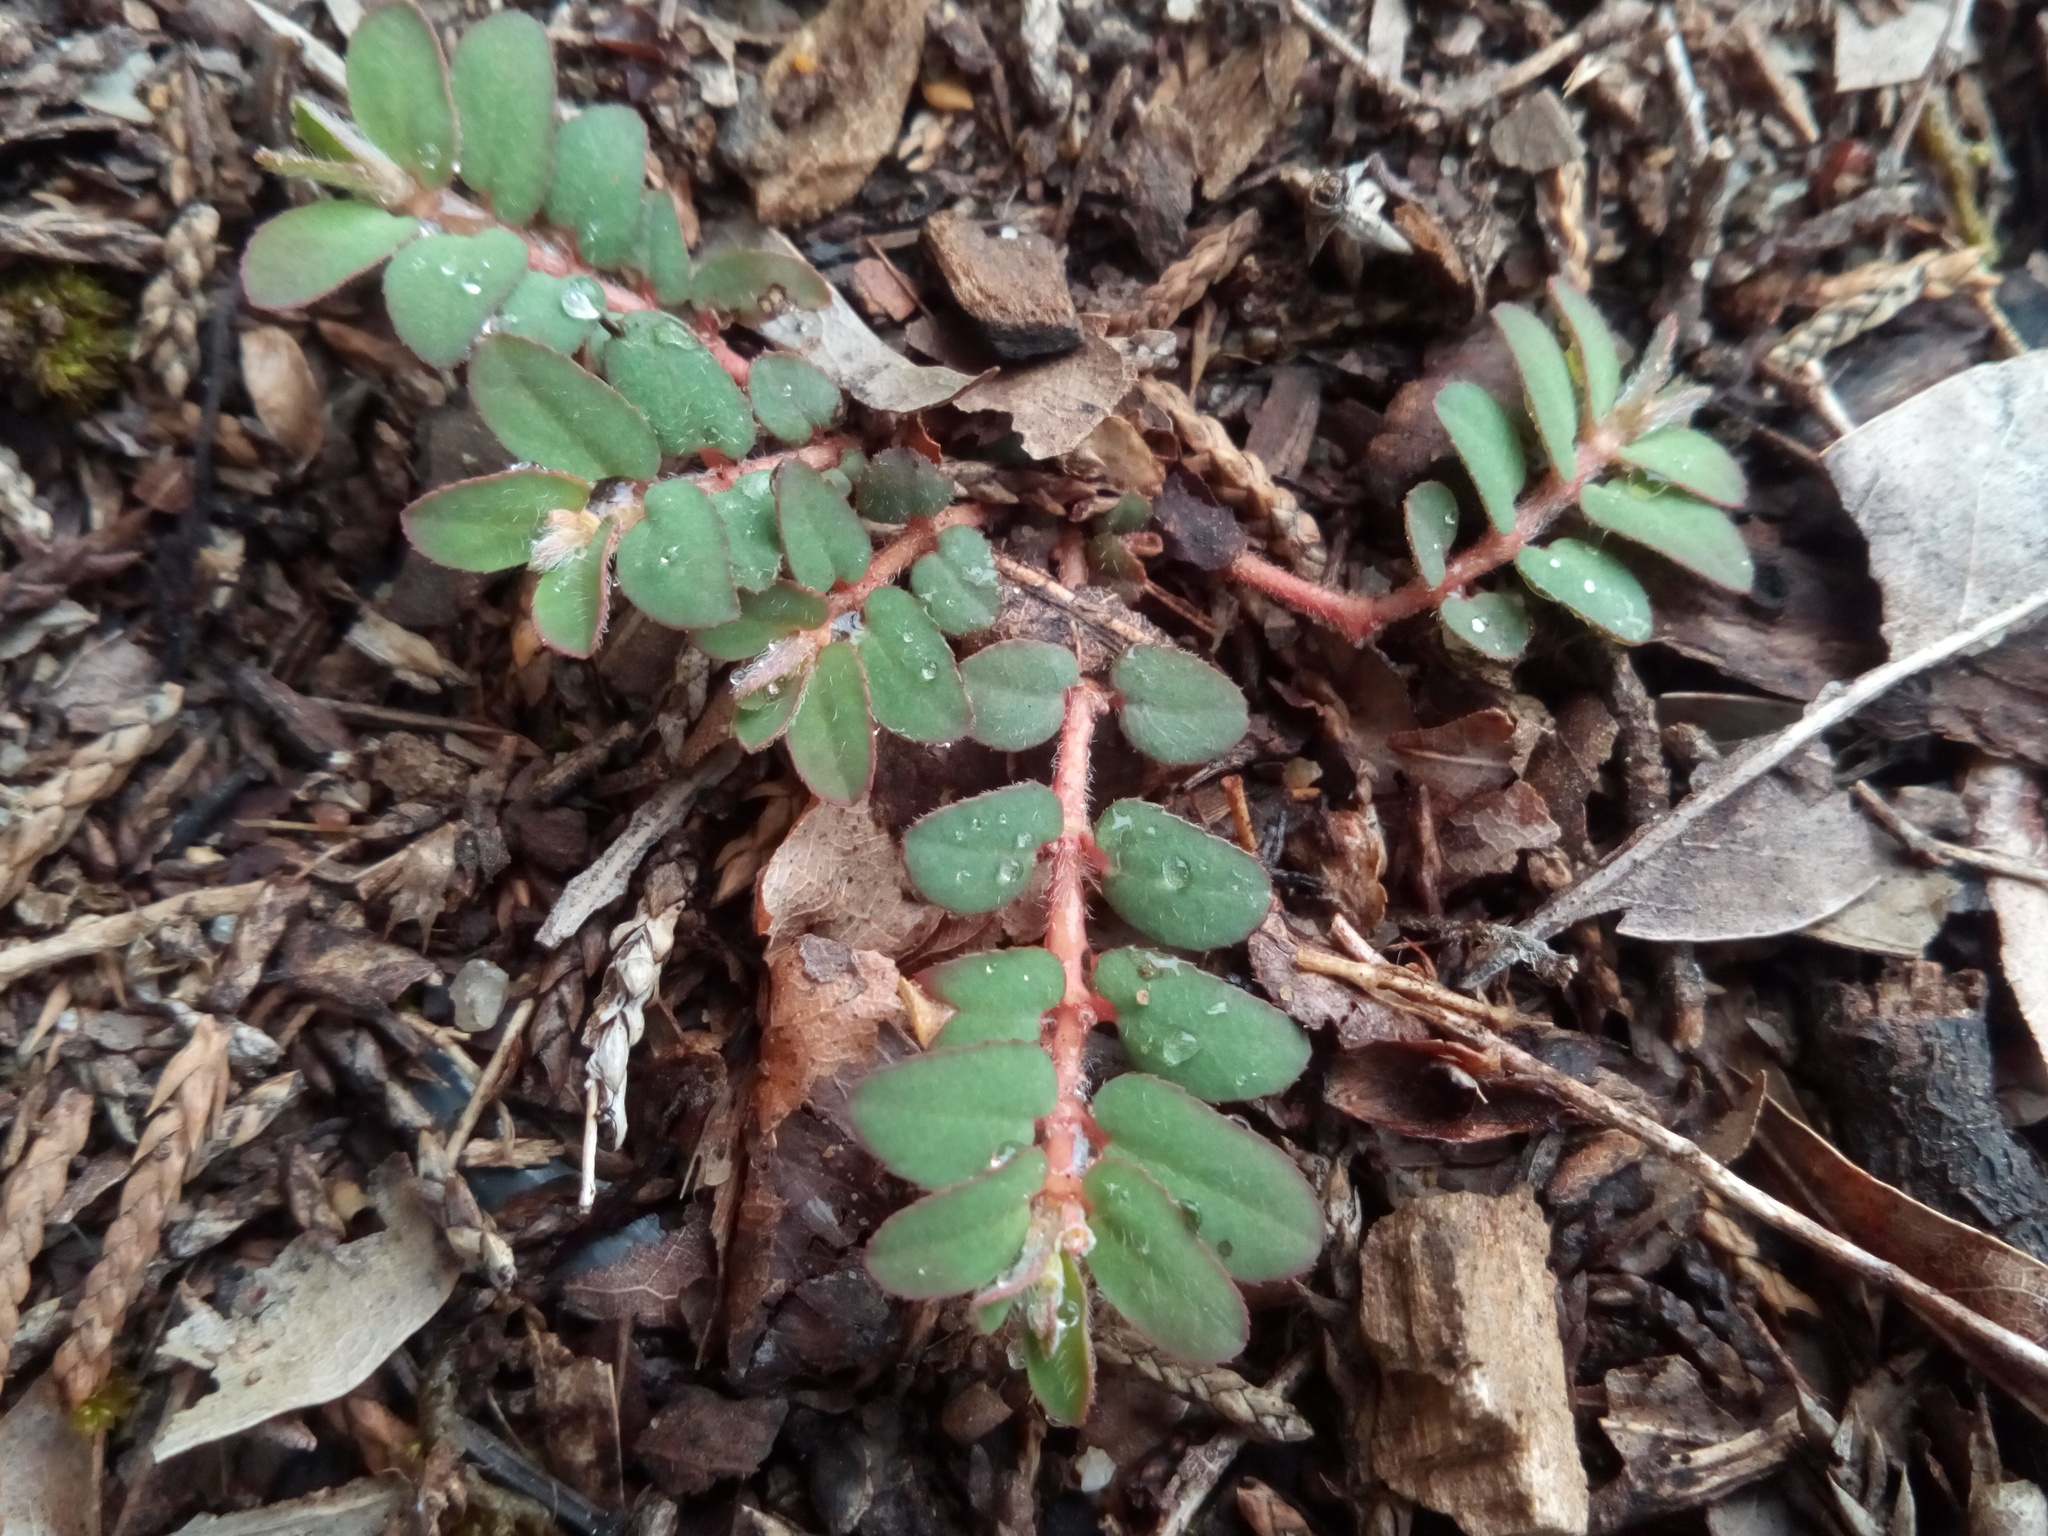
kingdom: Plantae
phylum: Tracheophyta
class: Magnoliopsida
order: Malpighiales
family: Euphorbiaceae
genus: Euphorbia
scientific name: Euphorbia maculata
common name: Spotted spurge
